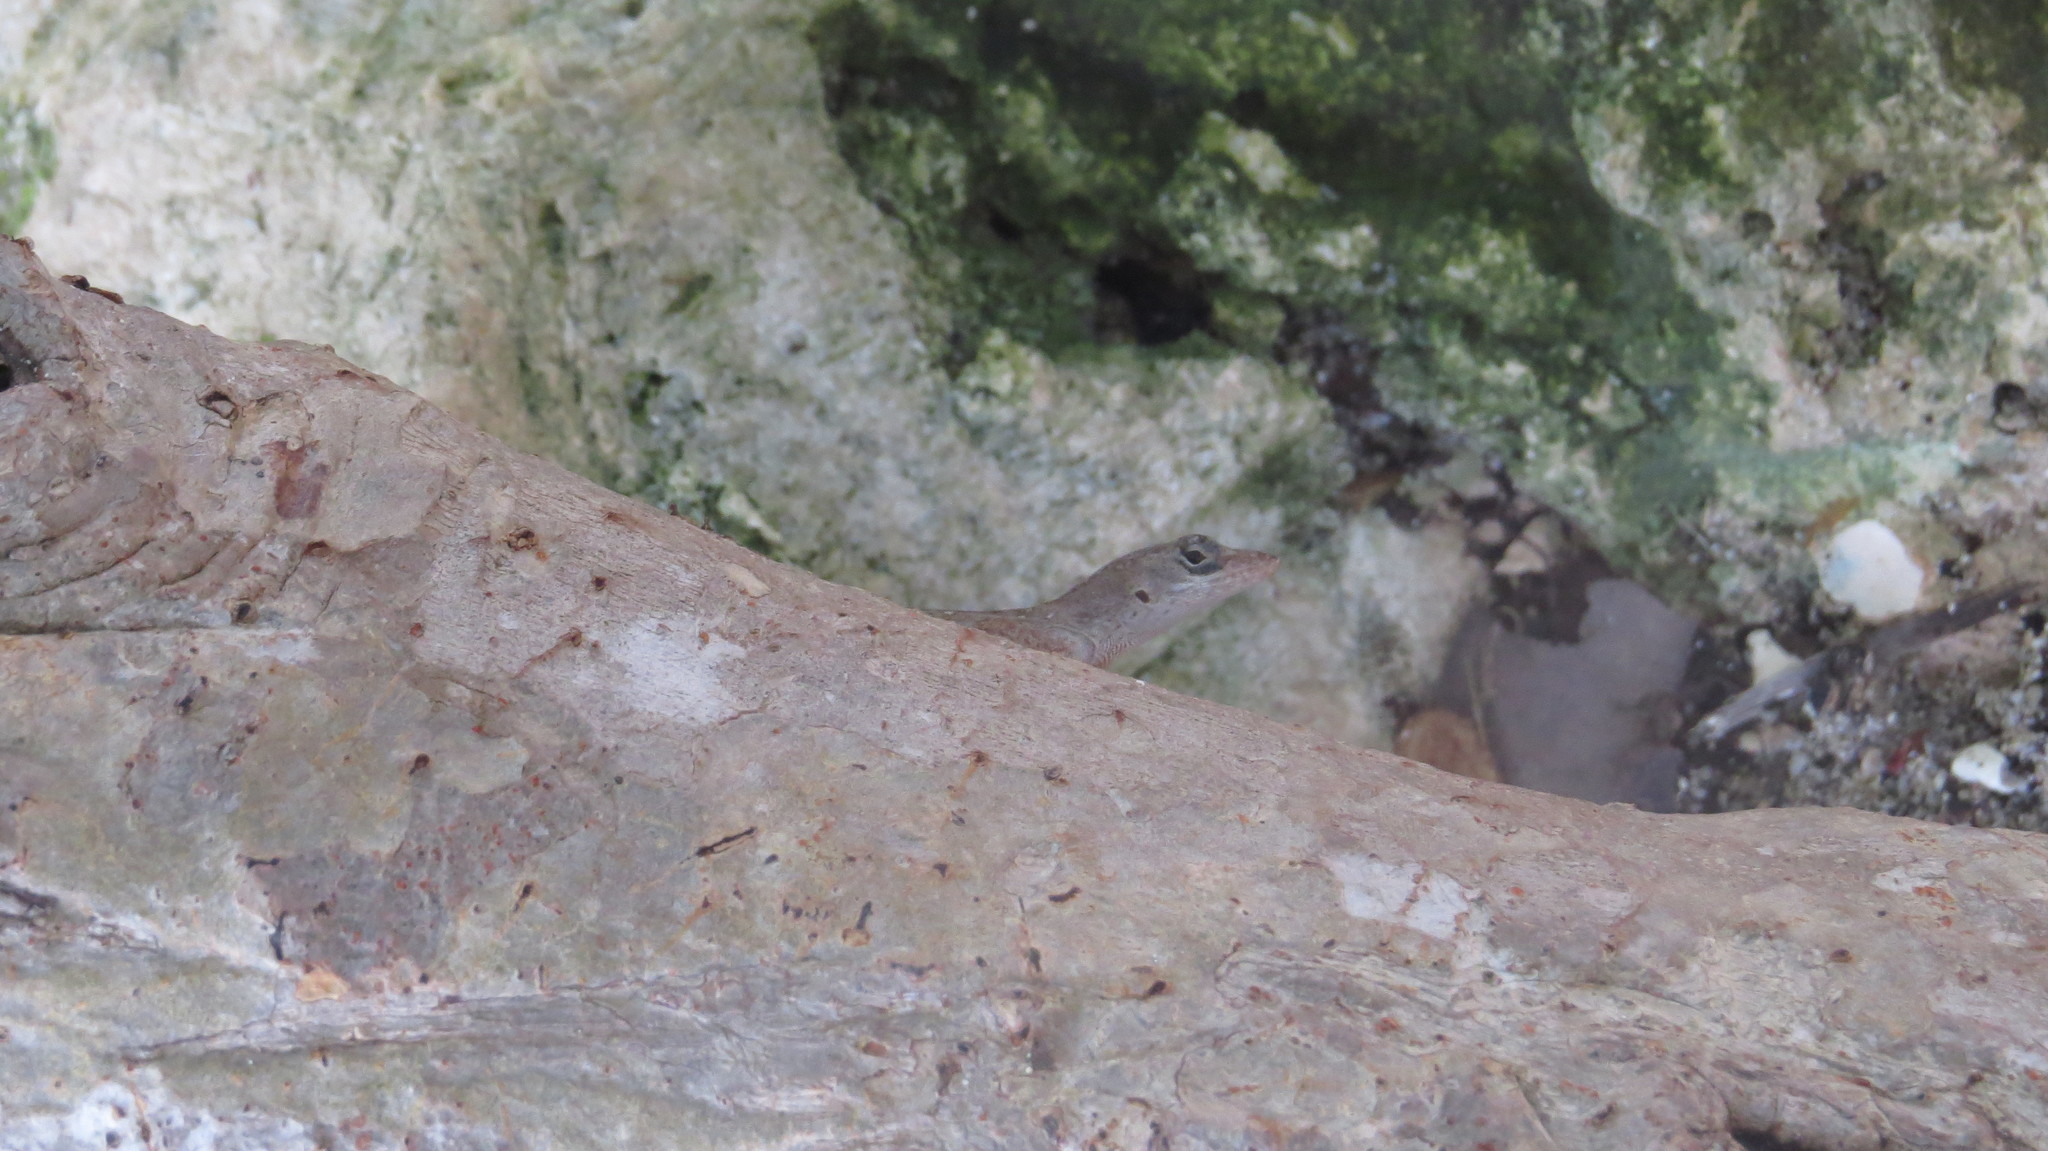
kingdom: Animalia
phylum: Chordata
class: Squamata
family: Dactyloidae
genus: Anolis
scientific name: Anolis sagrei
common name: Brown anole
